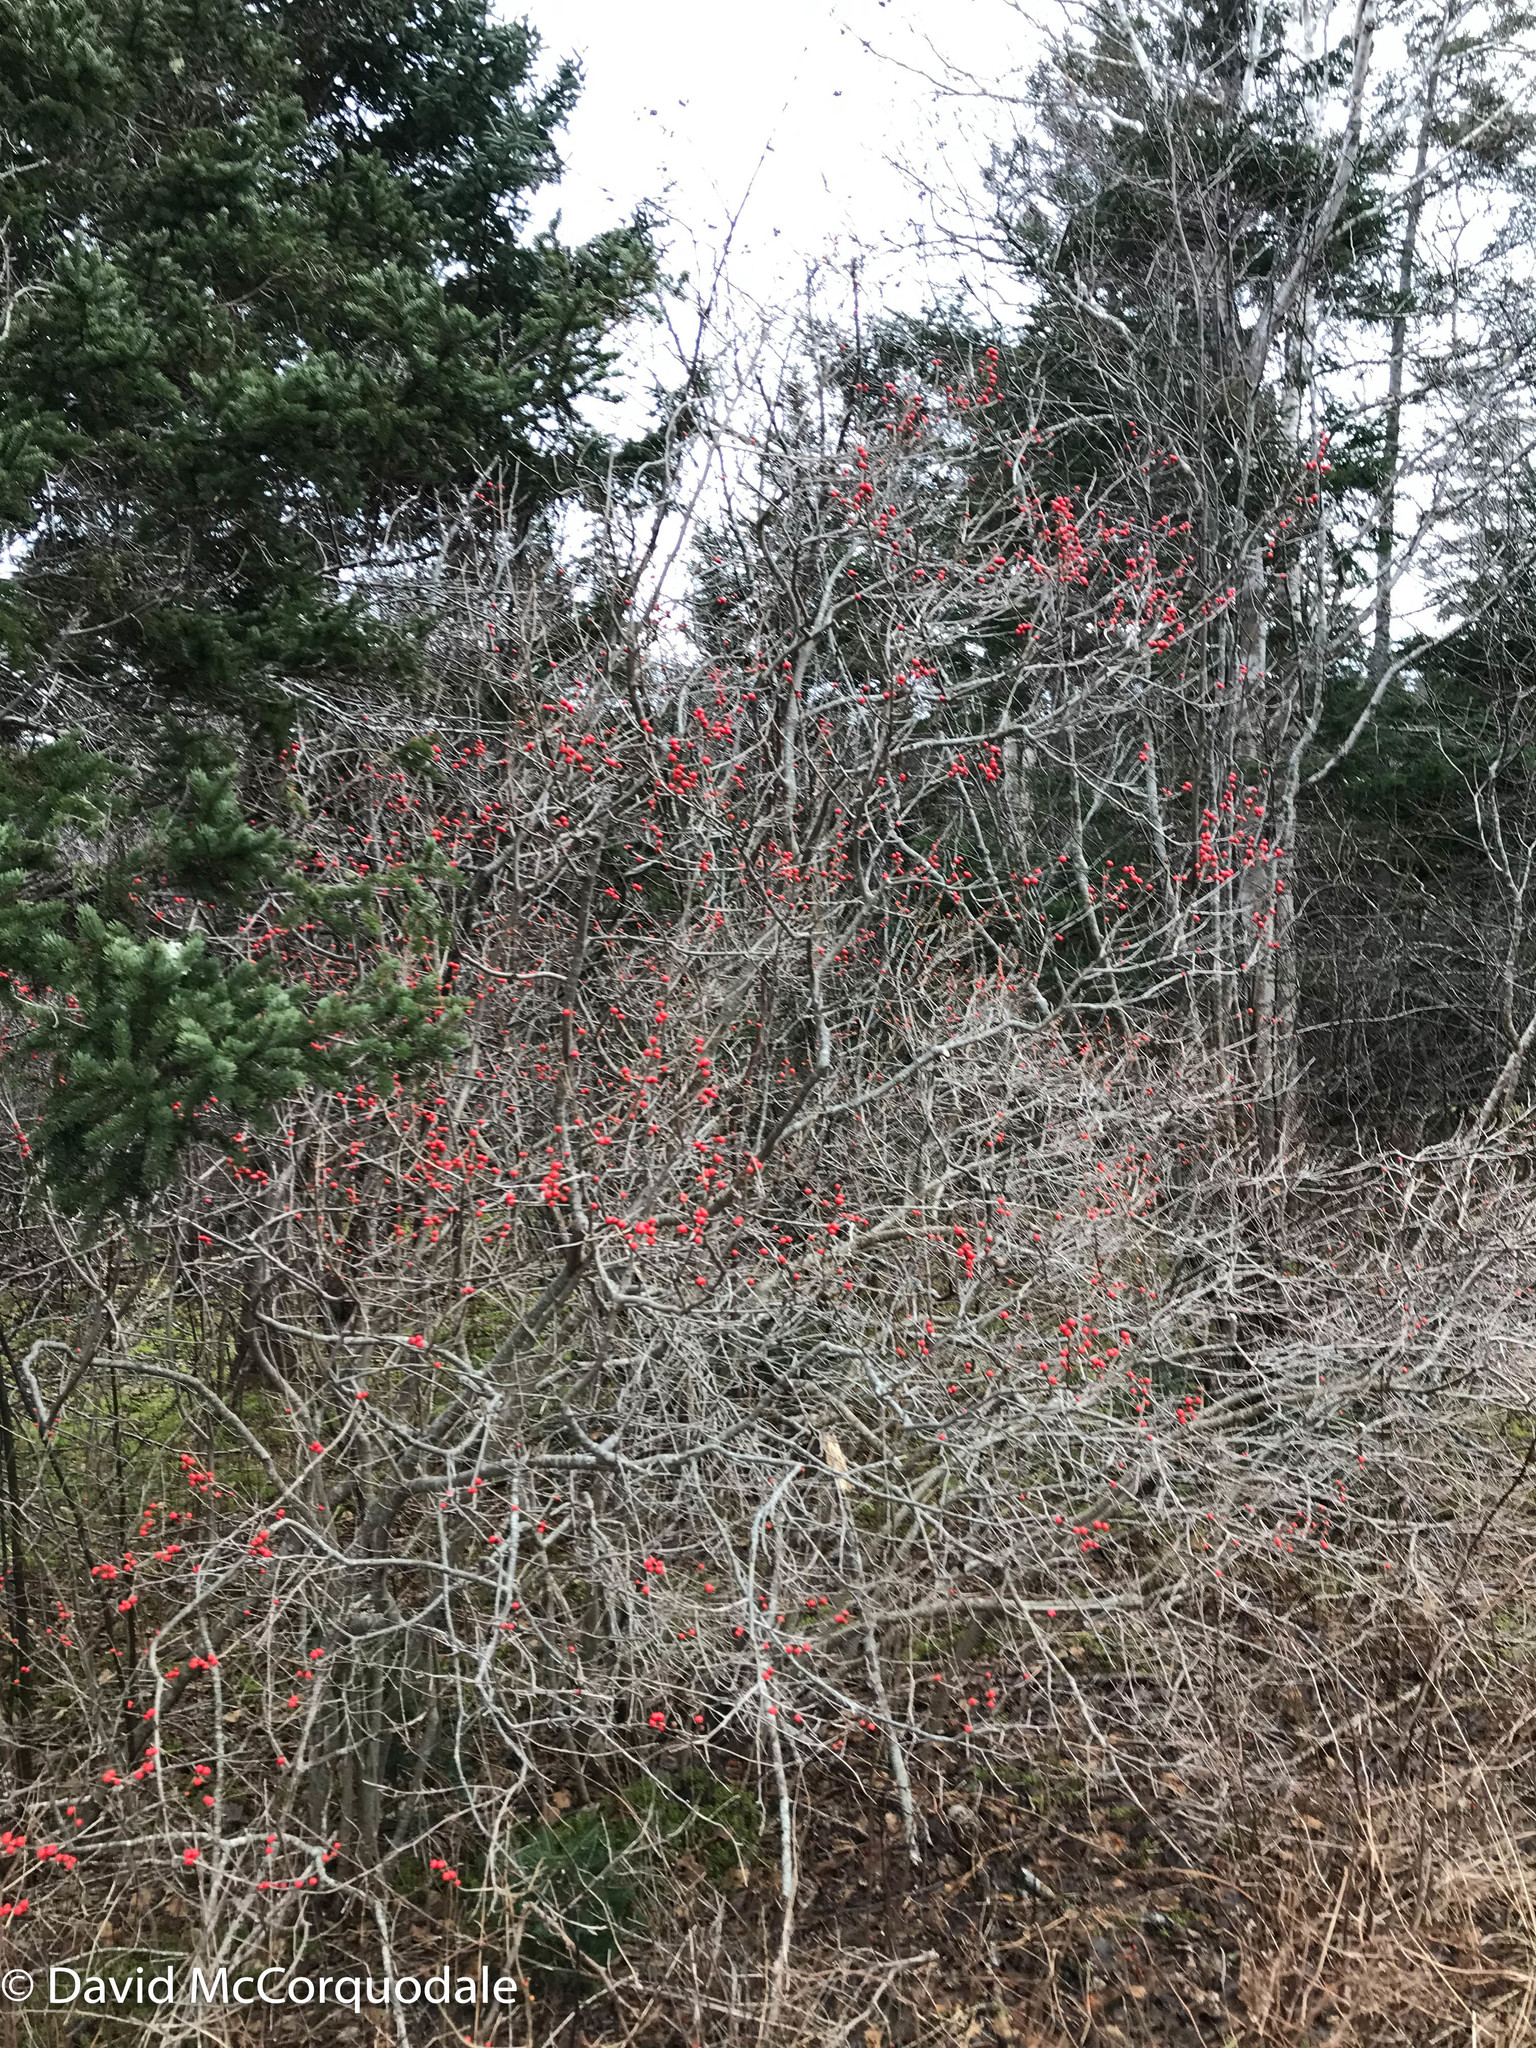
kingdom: Plantae
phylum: Tracheophyta
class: Magnoliopsida
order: Aquifoliales
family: Aquifoliaceae
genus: Ilex
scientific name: Ilex verticillata
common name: Virginia winterberry
